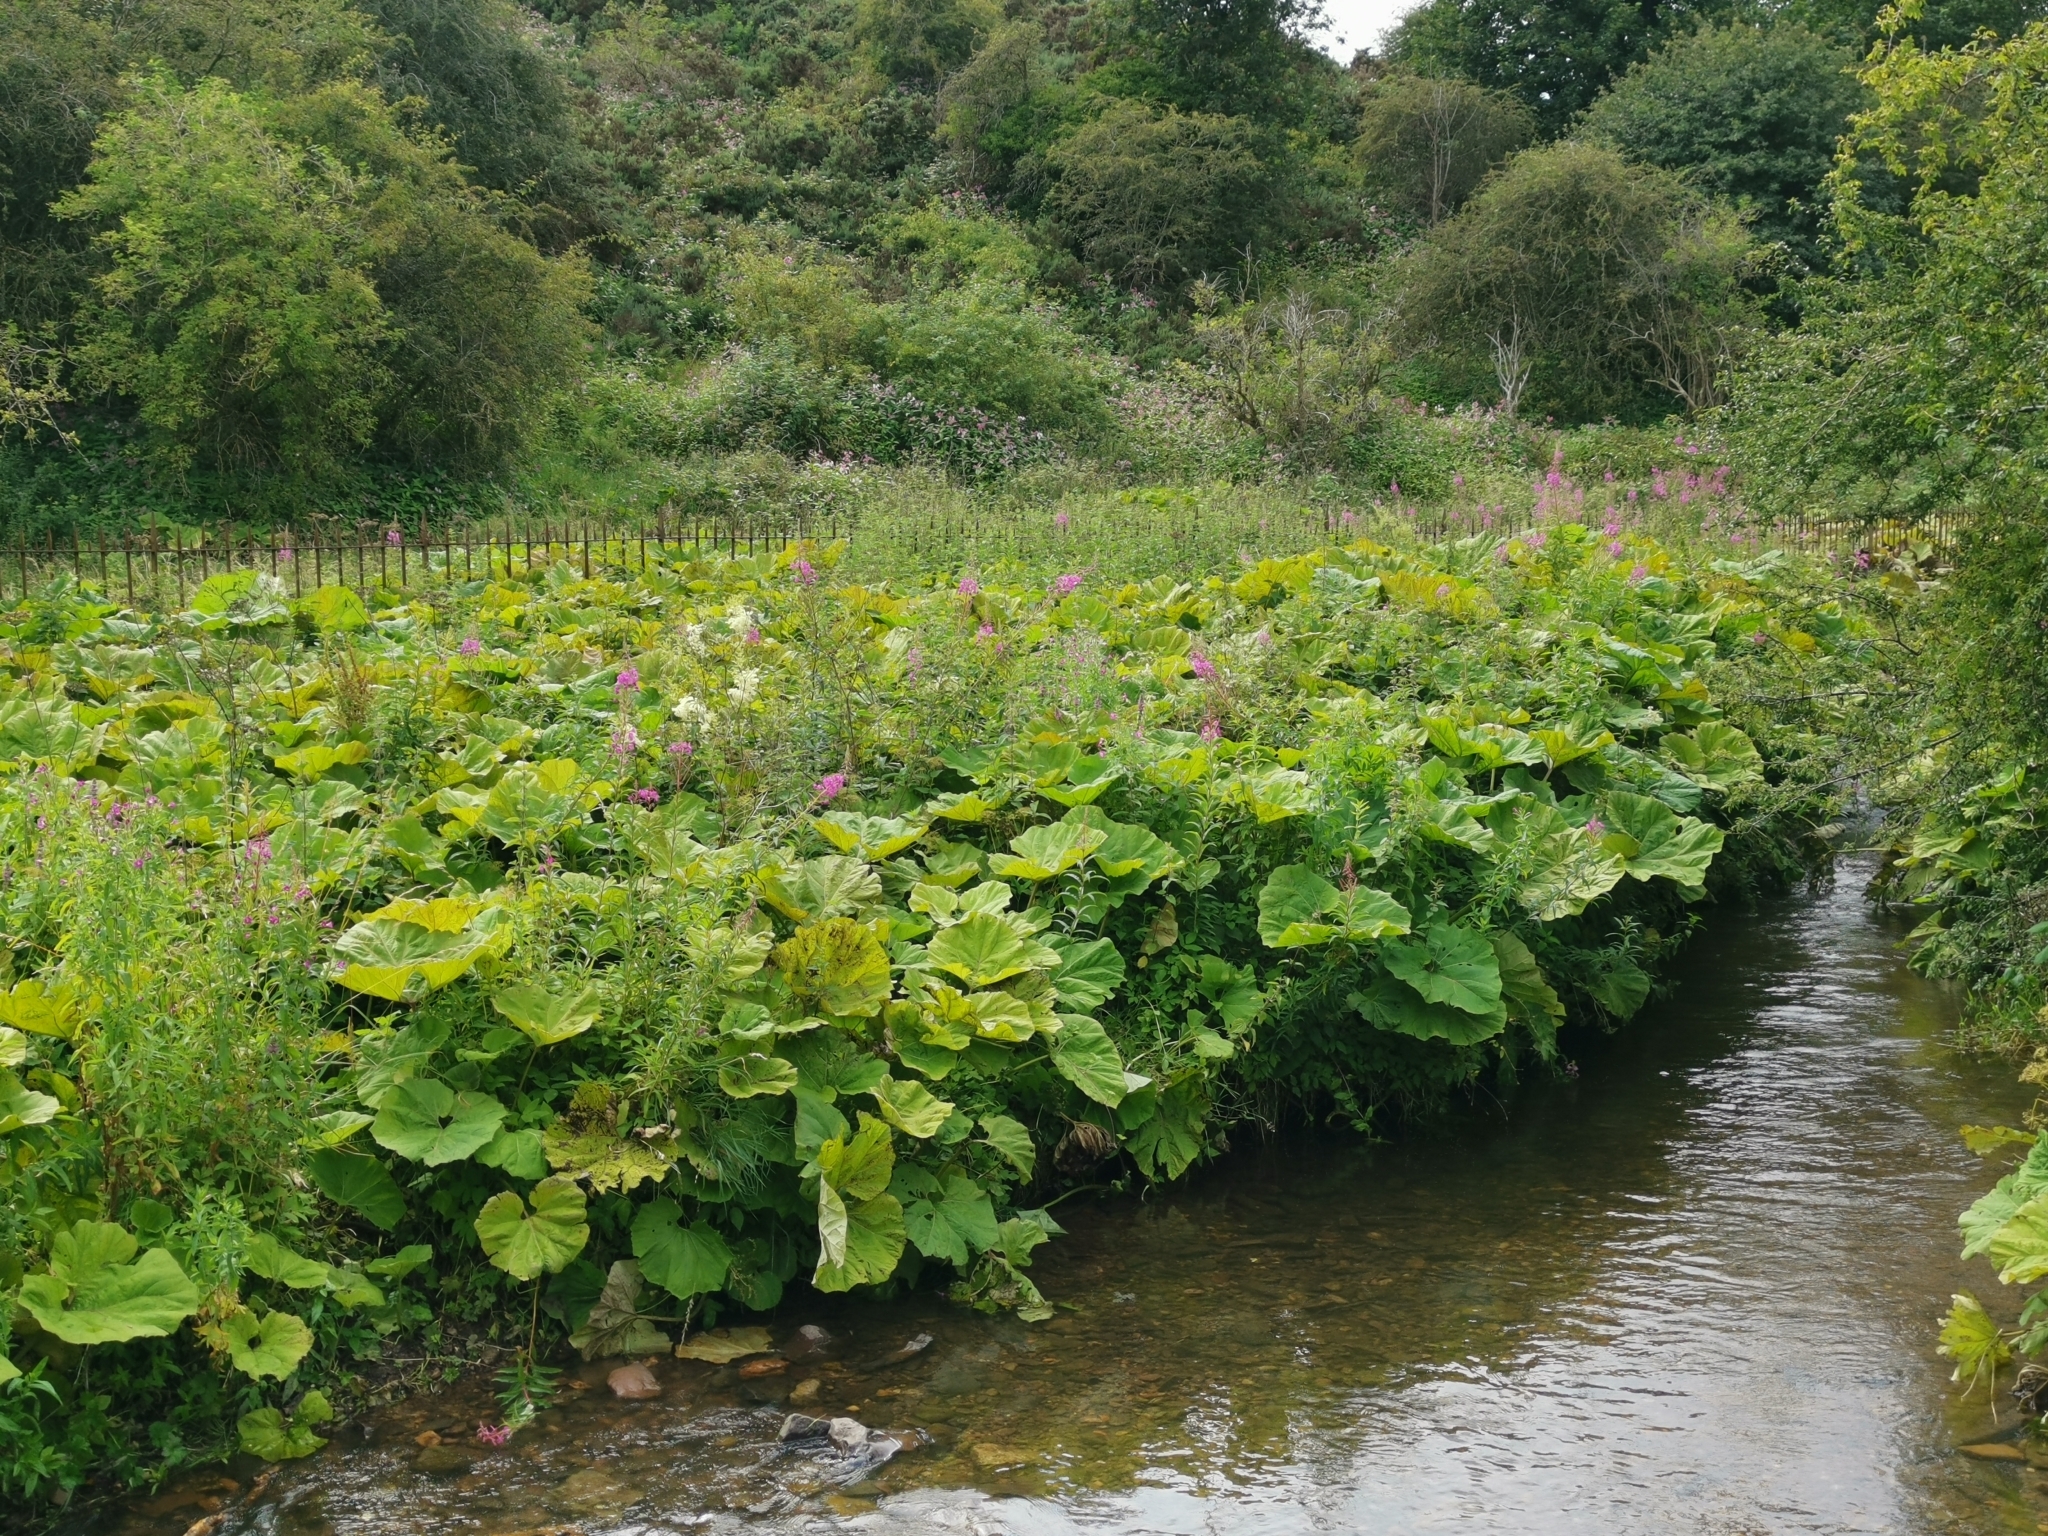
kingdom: Plantae
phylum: Tracheophyta
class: Magnoliopsida
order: Asterales
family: Asteraceae
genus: Petasites
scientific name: Petasites hybridus
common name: Butterbur
